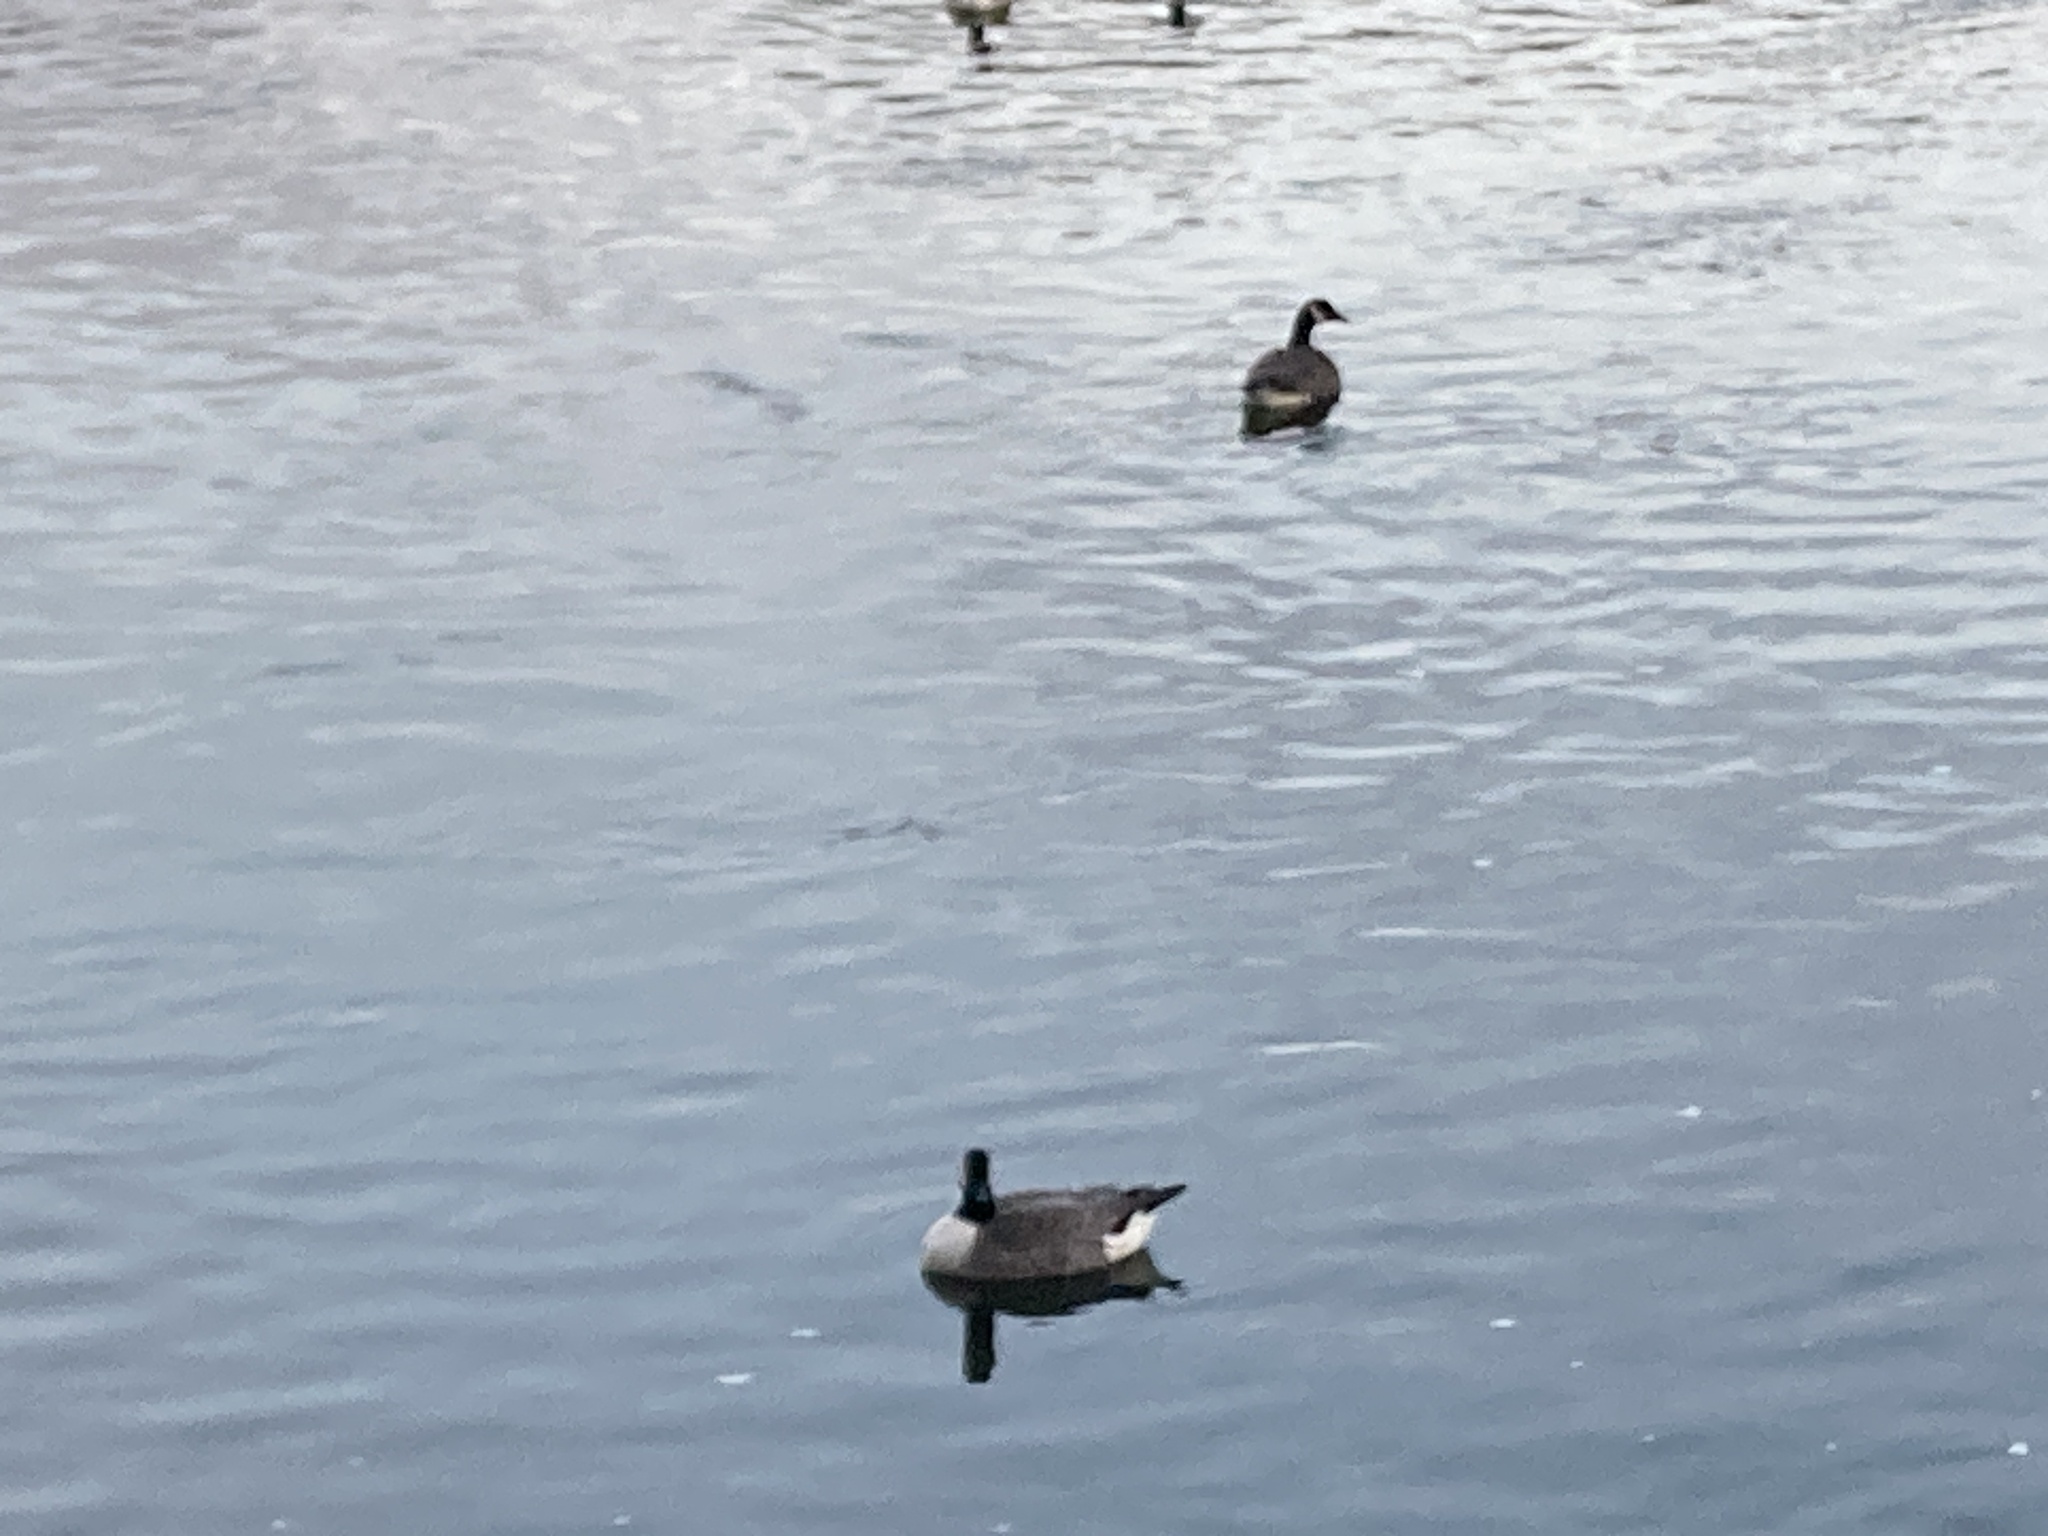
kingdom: Animalia
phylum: Chordata
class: Aves
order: Anseriformes
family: Anatidae
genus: Branta
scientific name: Branta canadensis
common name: Canada goose
